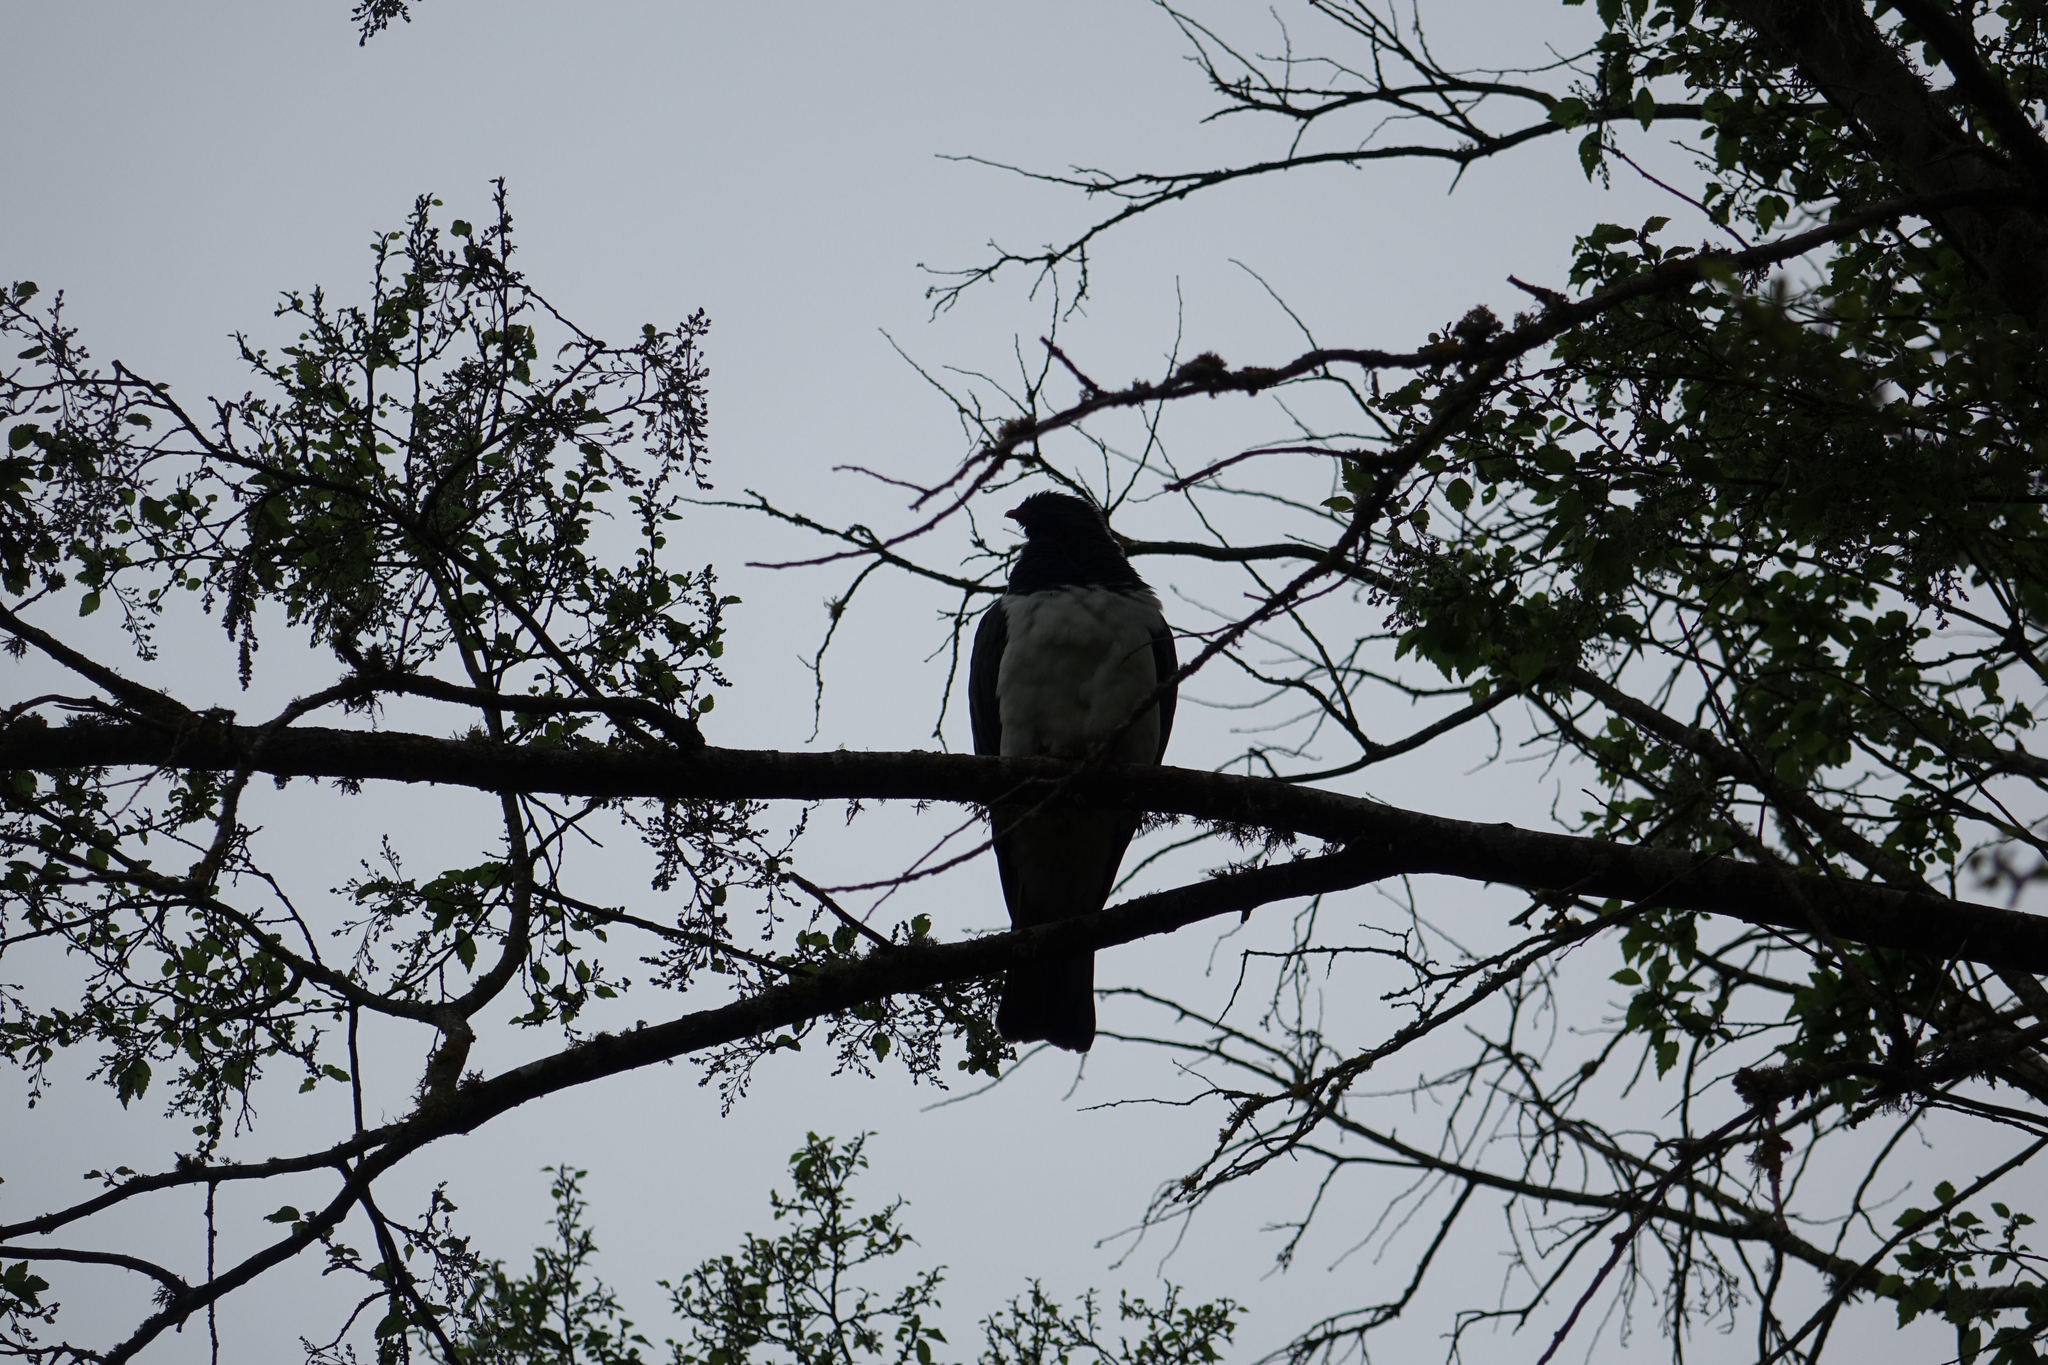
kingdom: Animalia
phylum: Chordata
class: Aves
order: Columbiformes
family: Columbidae
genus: Hemiphaga
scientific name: Hemiphaga novaeseelandiae
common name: New zealand pigeon
